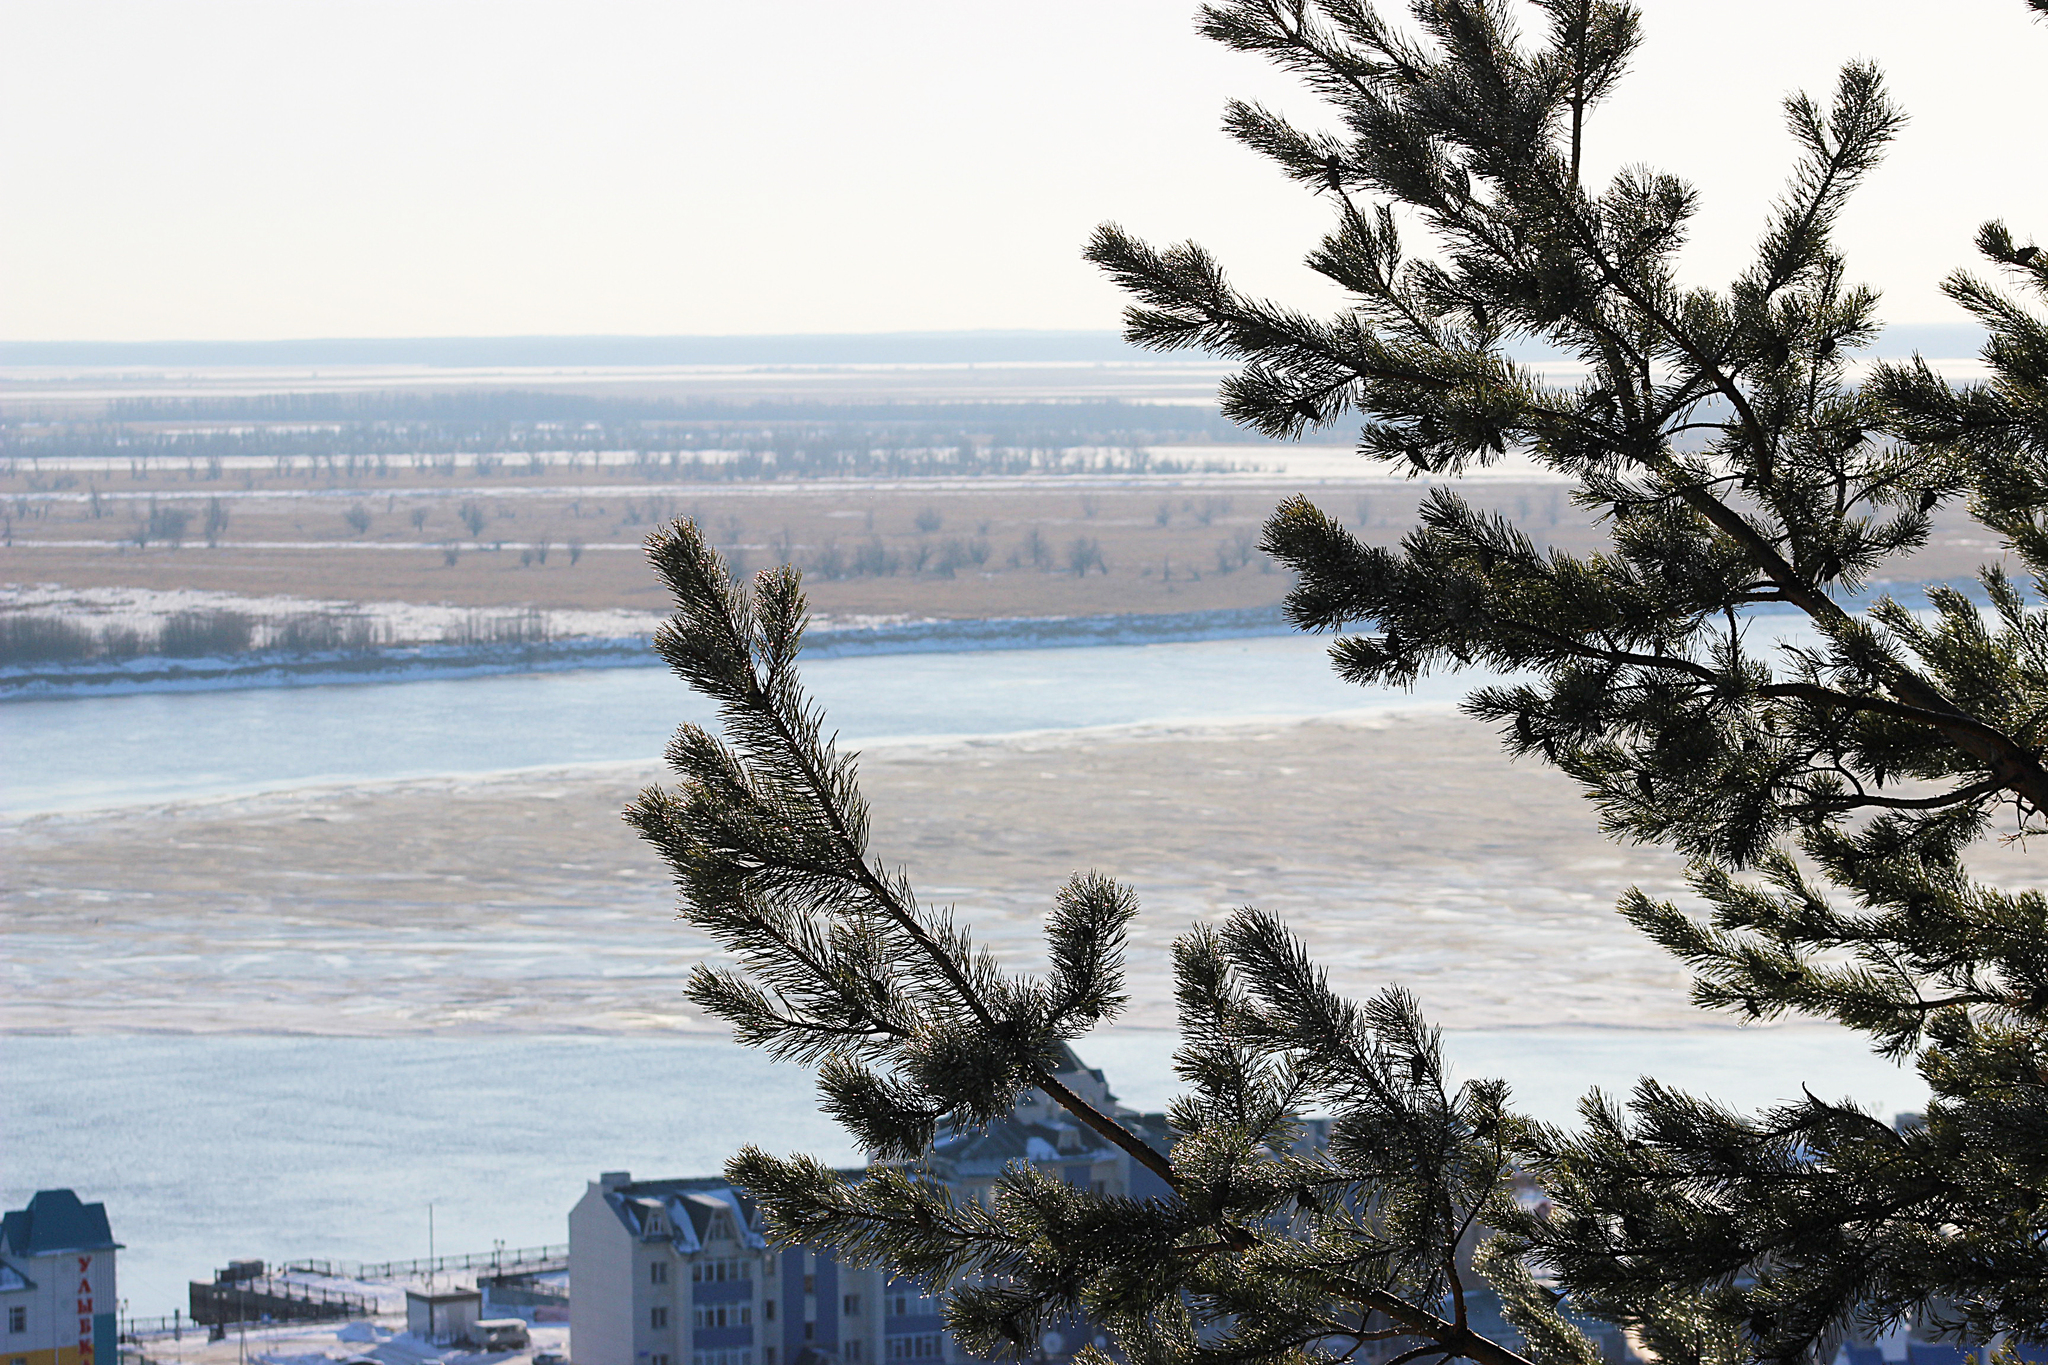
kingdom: Plantae
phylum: Tracheophyta
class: Pinopsida
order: Pinales
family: Pinaceae
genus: Pinus
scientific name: Pinus sylvestris
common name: Scots pine
